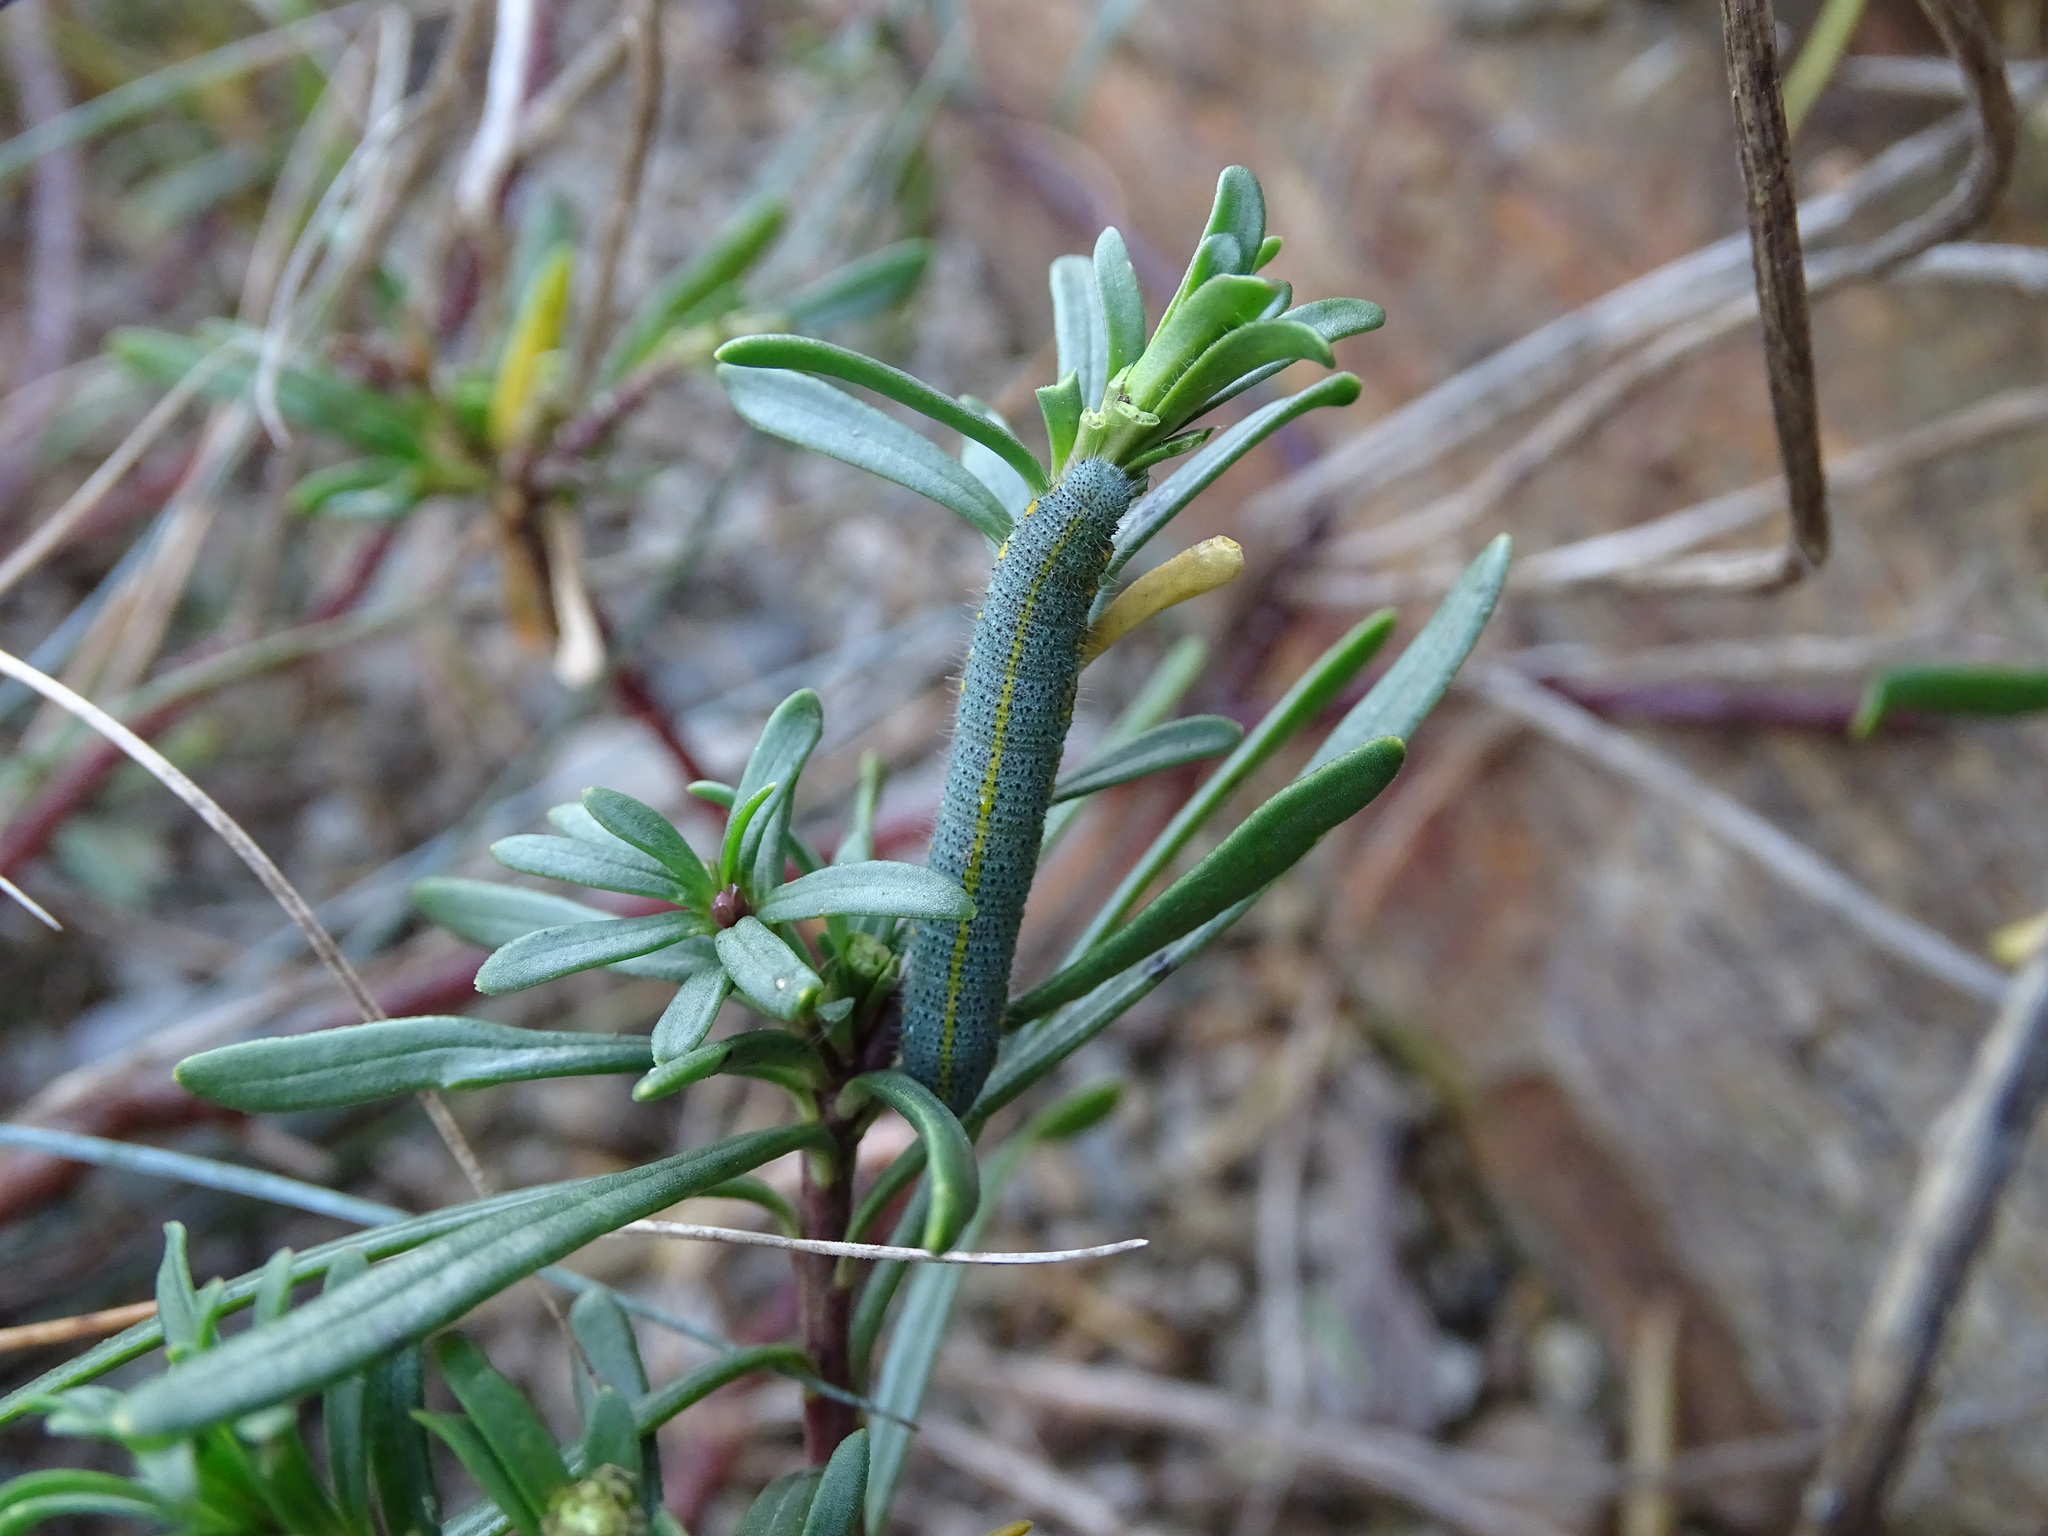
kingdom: Animalia
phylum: Arthropoda
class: Insecta
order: Lepidoptera
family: Pieridae
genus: Pieris
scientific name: Pieris mannii
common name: Southern small white
